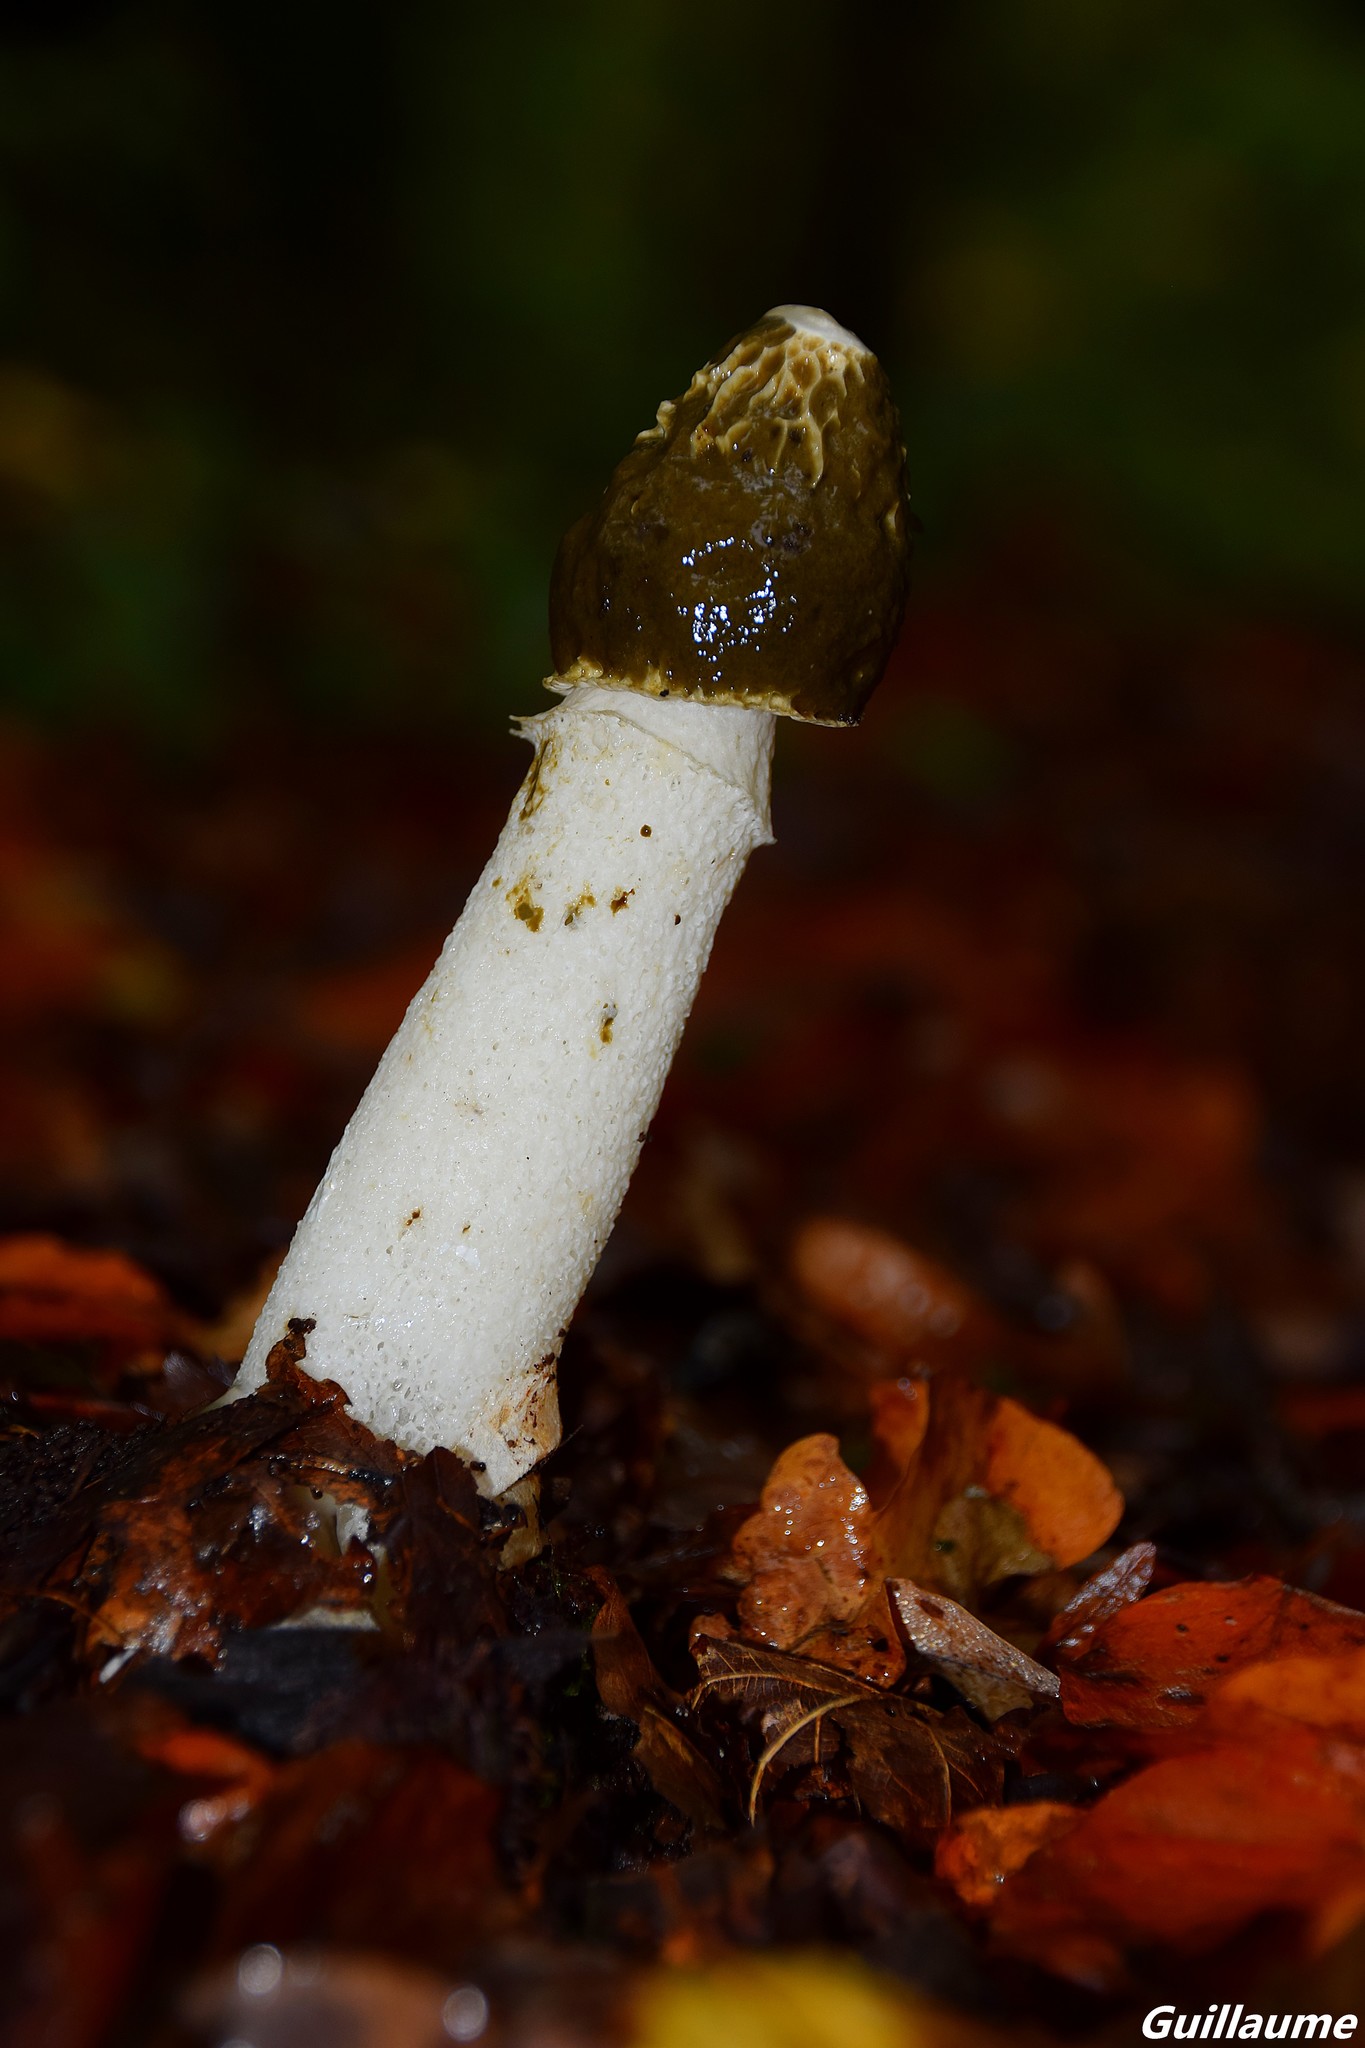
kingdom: Fungi
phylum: Basidiomycota
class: Agaricomycetes
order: Phallales
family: Phallaceae
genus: Phallus
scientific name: Phallus impudicus
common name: Common stinkhorn
